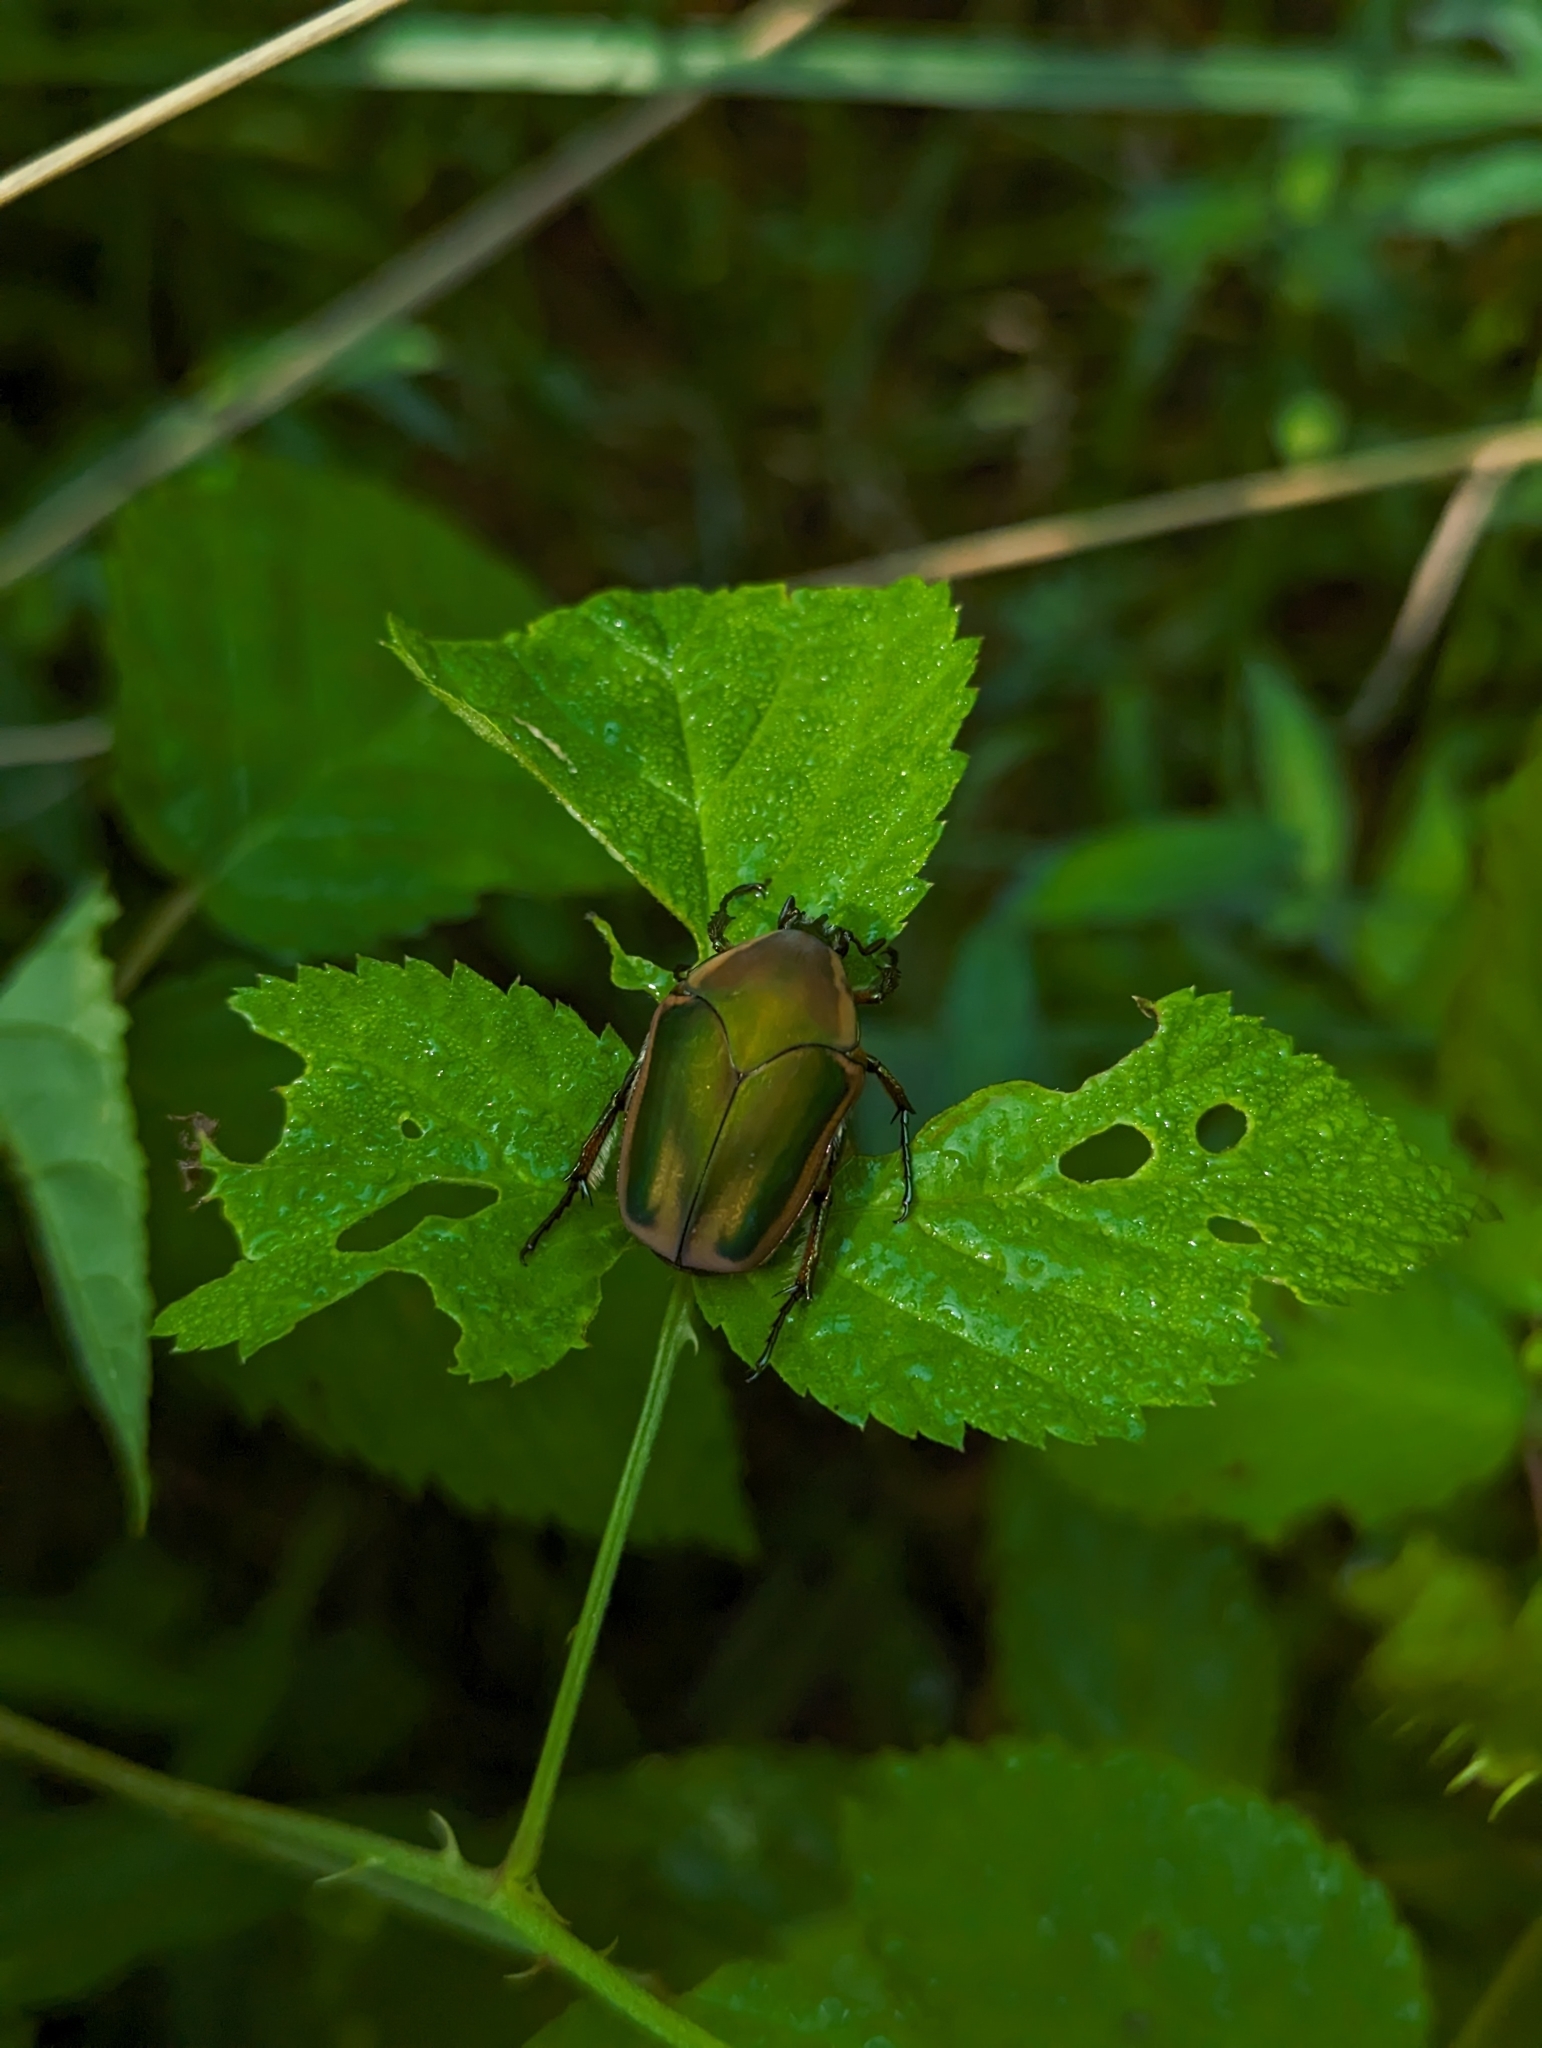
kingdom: Animalia
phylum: Arthropoda
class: Insecta
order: Coleoptera
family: Scarabaeidae
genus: Cotinis
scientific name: Cotinis nitida
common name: Common green june beetle
